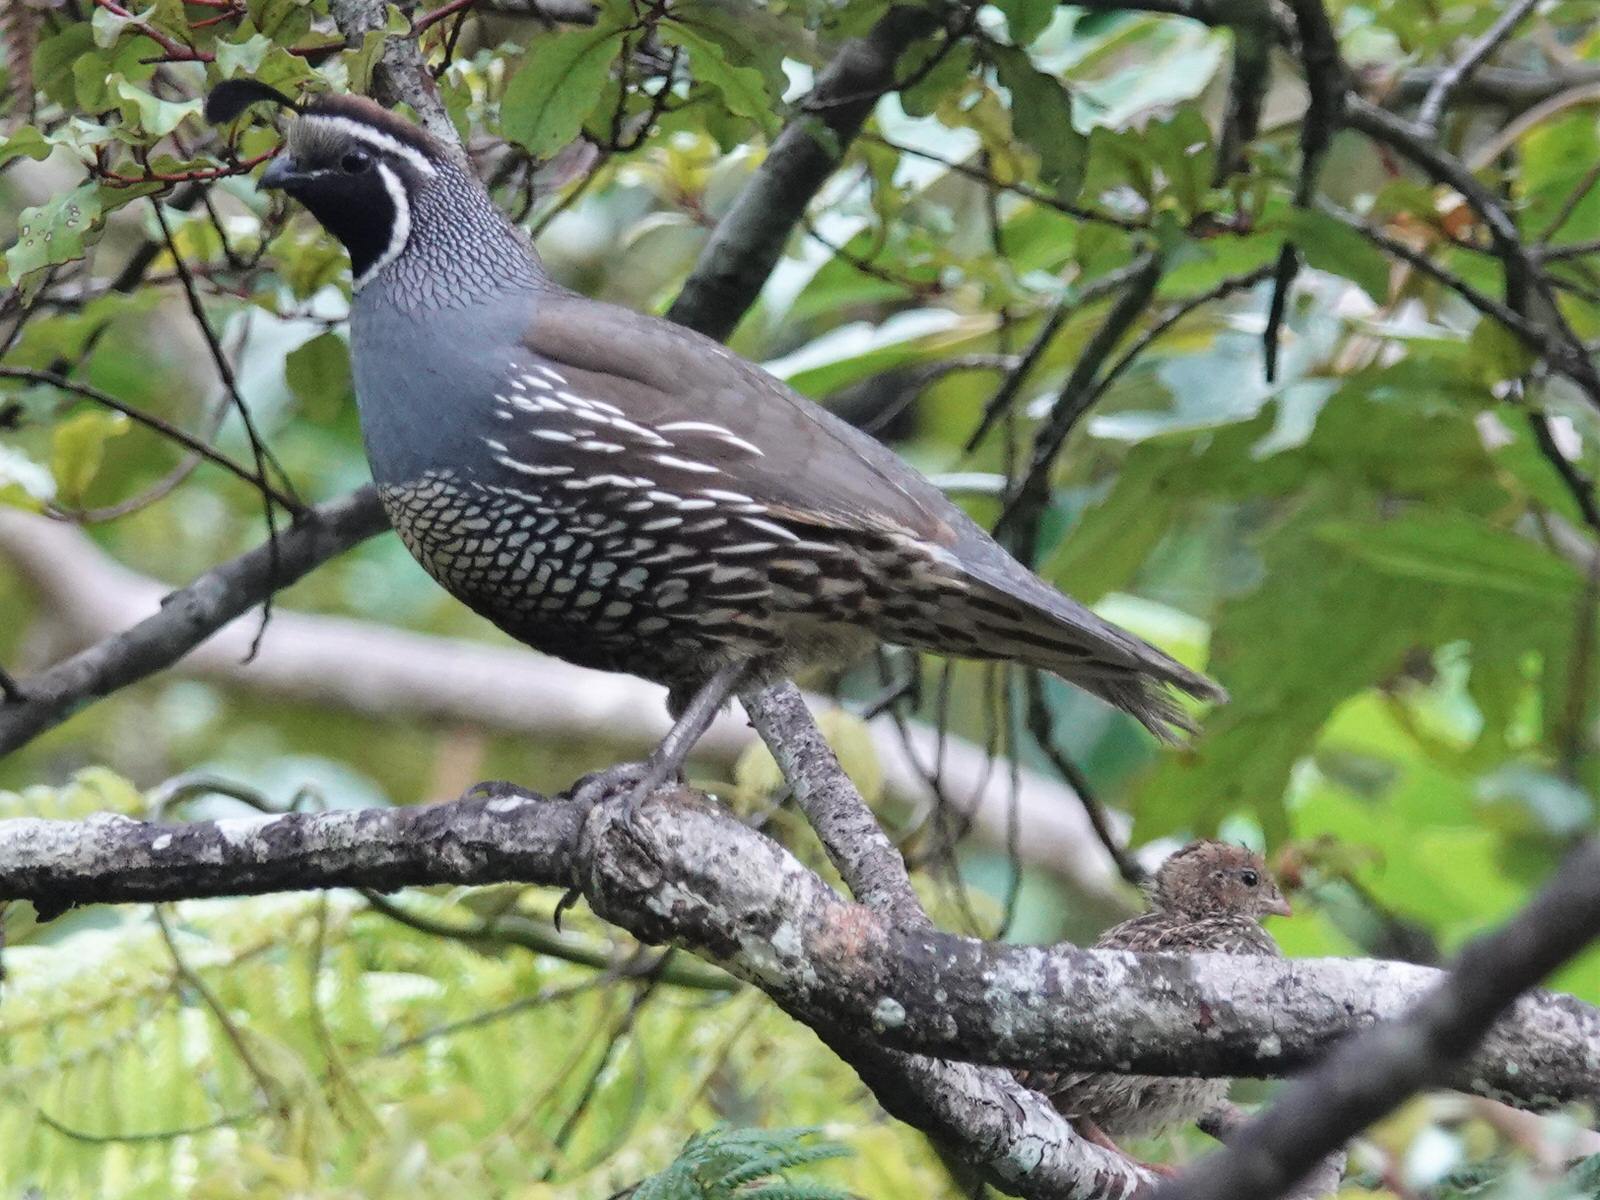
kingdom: Animalia
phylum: Chordata
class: Aves
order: Galliformes
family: Odontophoridae
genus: Callipepla
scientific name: Callipepla californica
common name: California quail
